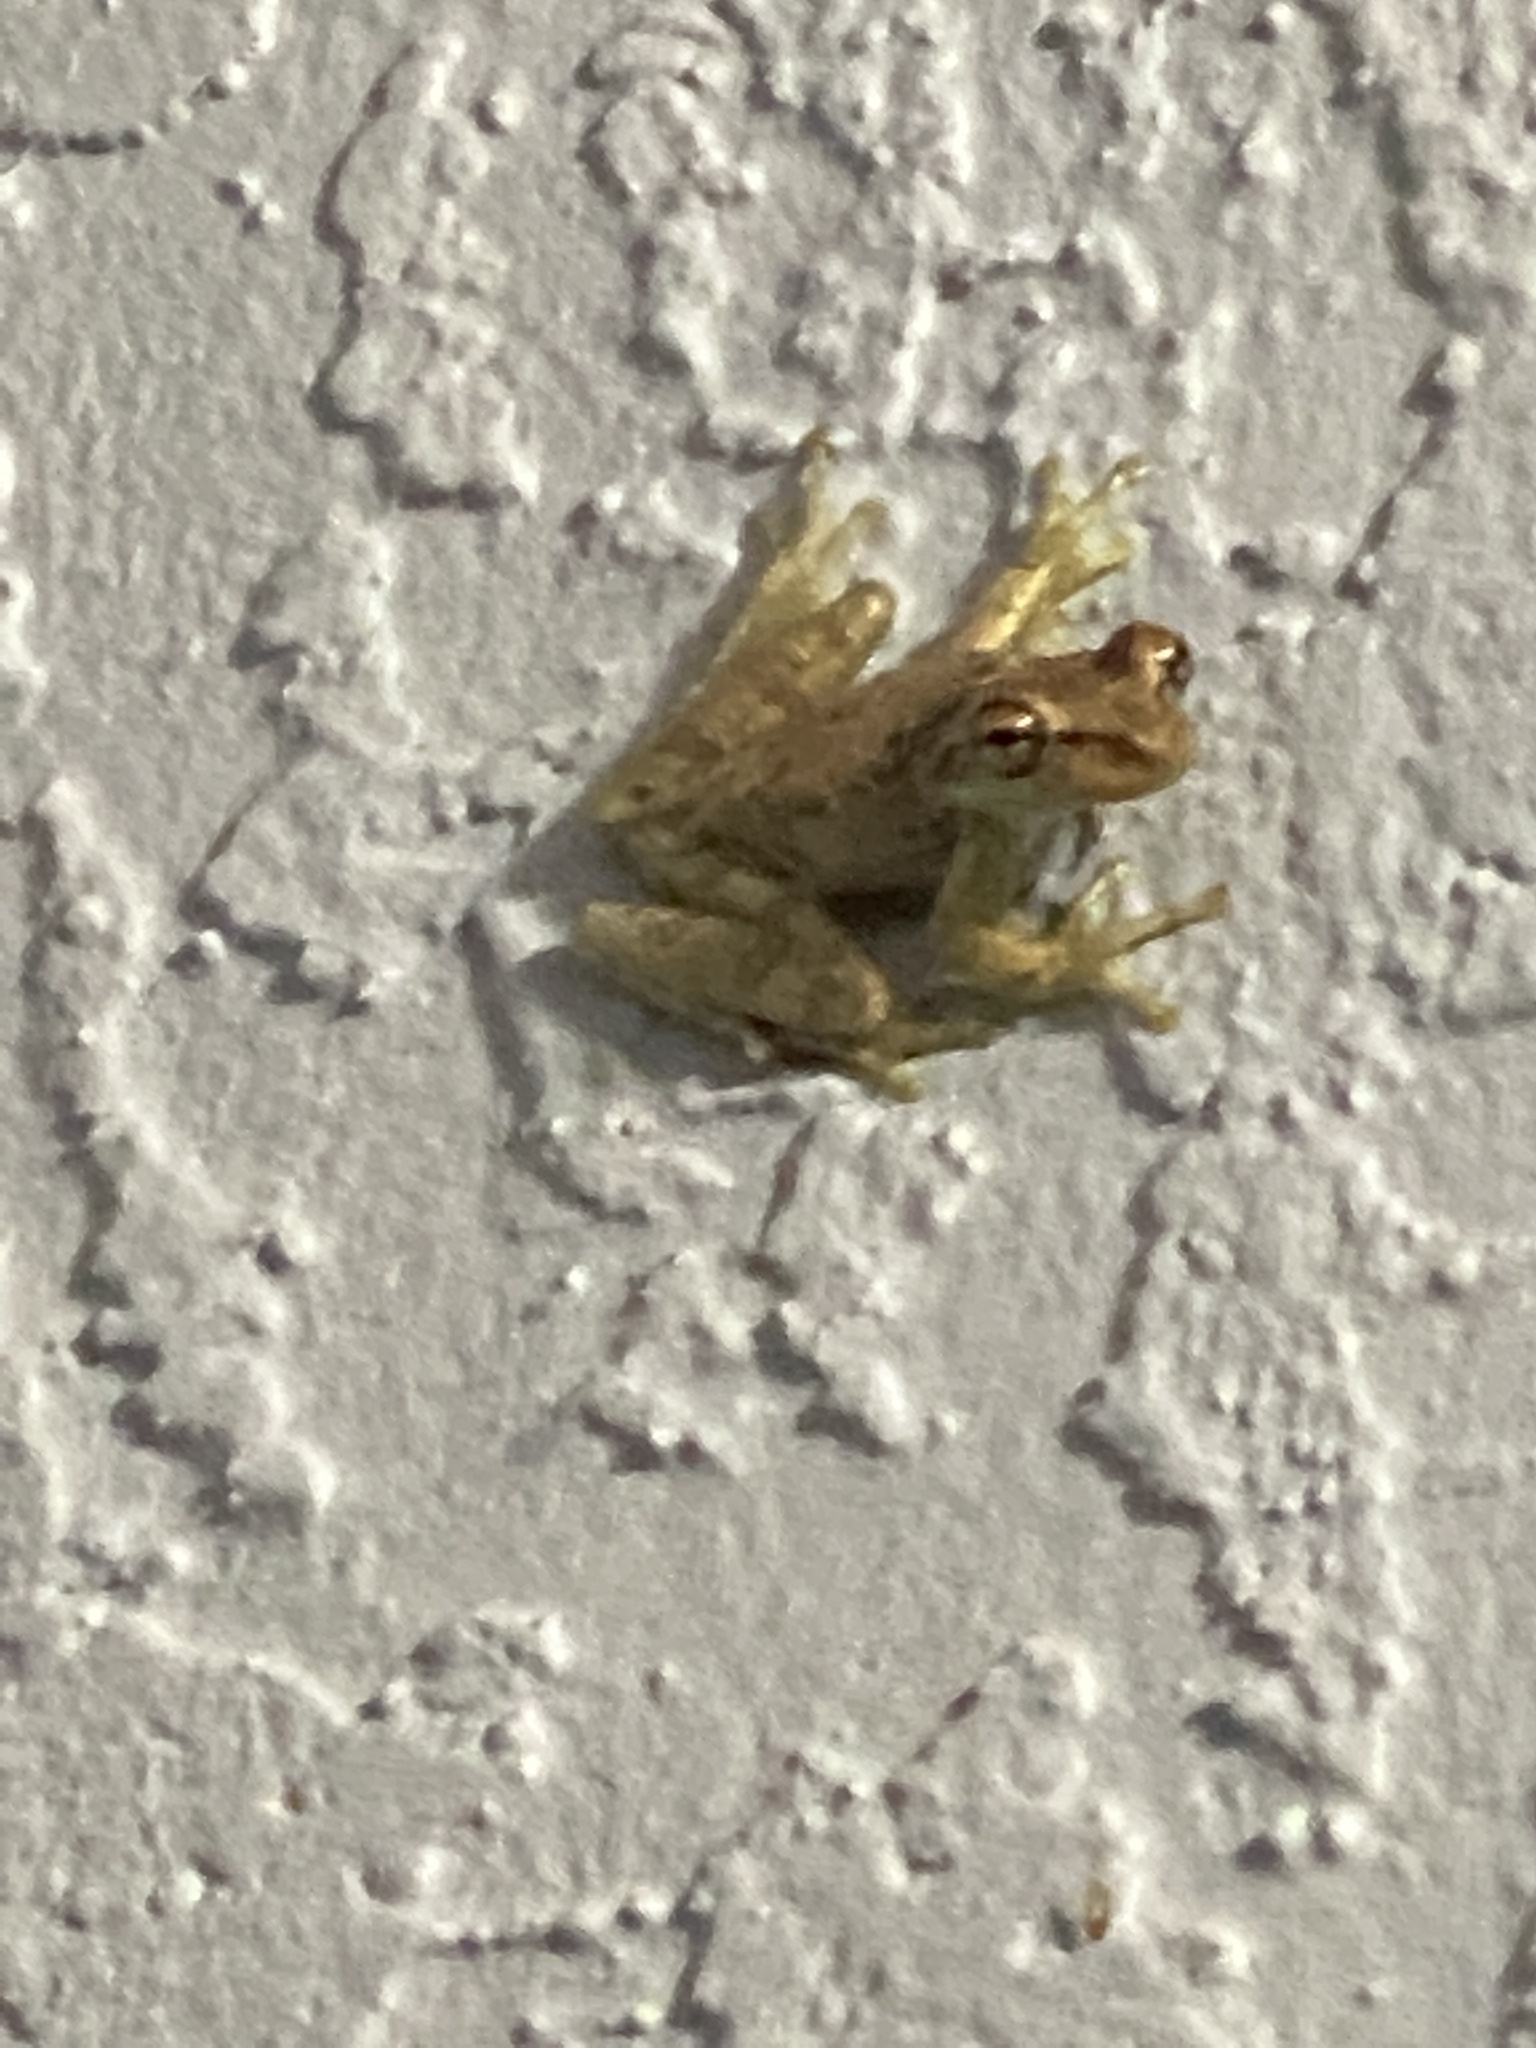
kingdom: Animalia
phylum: Chordata
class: Amphibia
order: Anura
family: Hylidae
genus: Osteopilus
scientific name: Osteopilus septentrionalis
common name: Cuban treefrog
